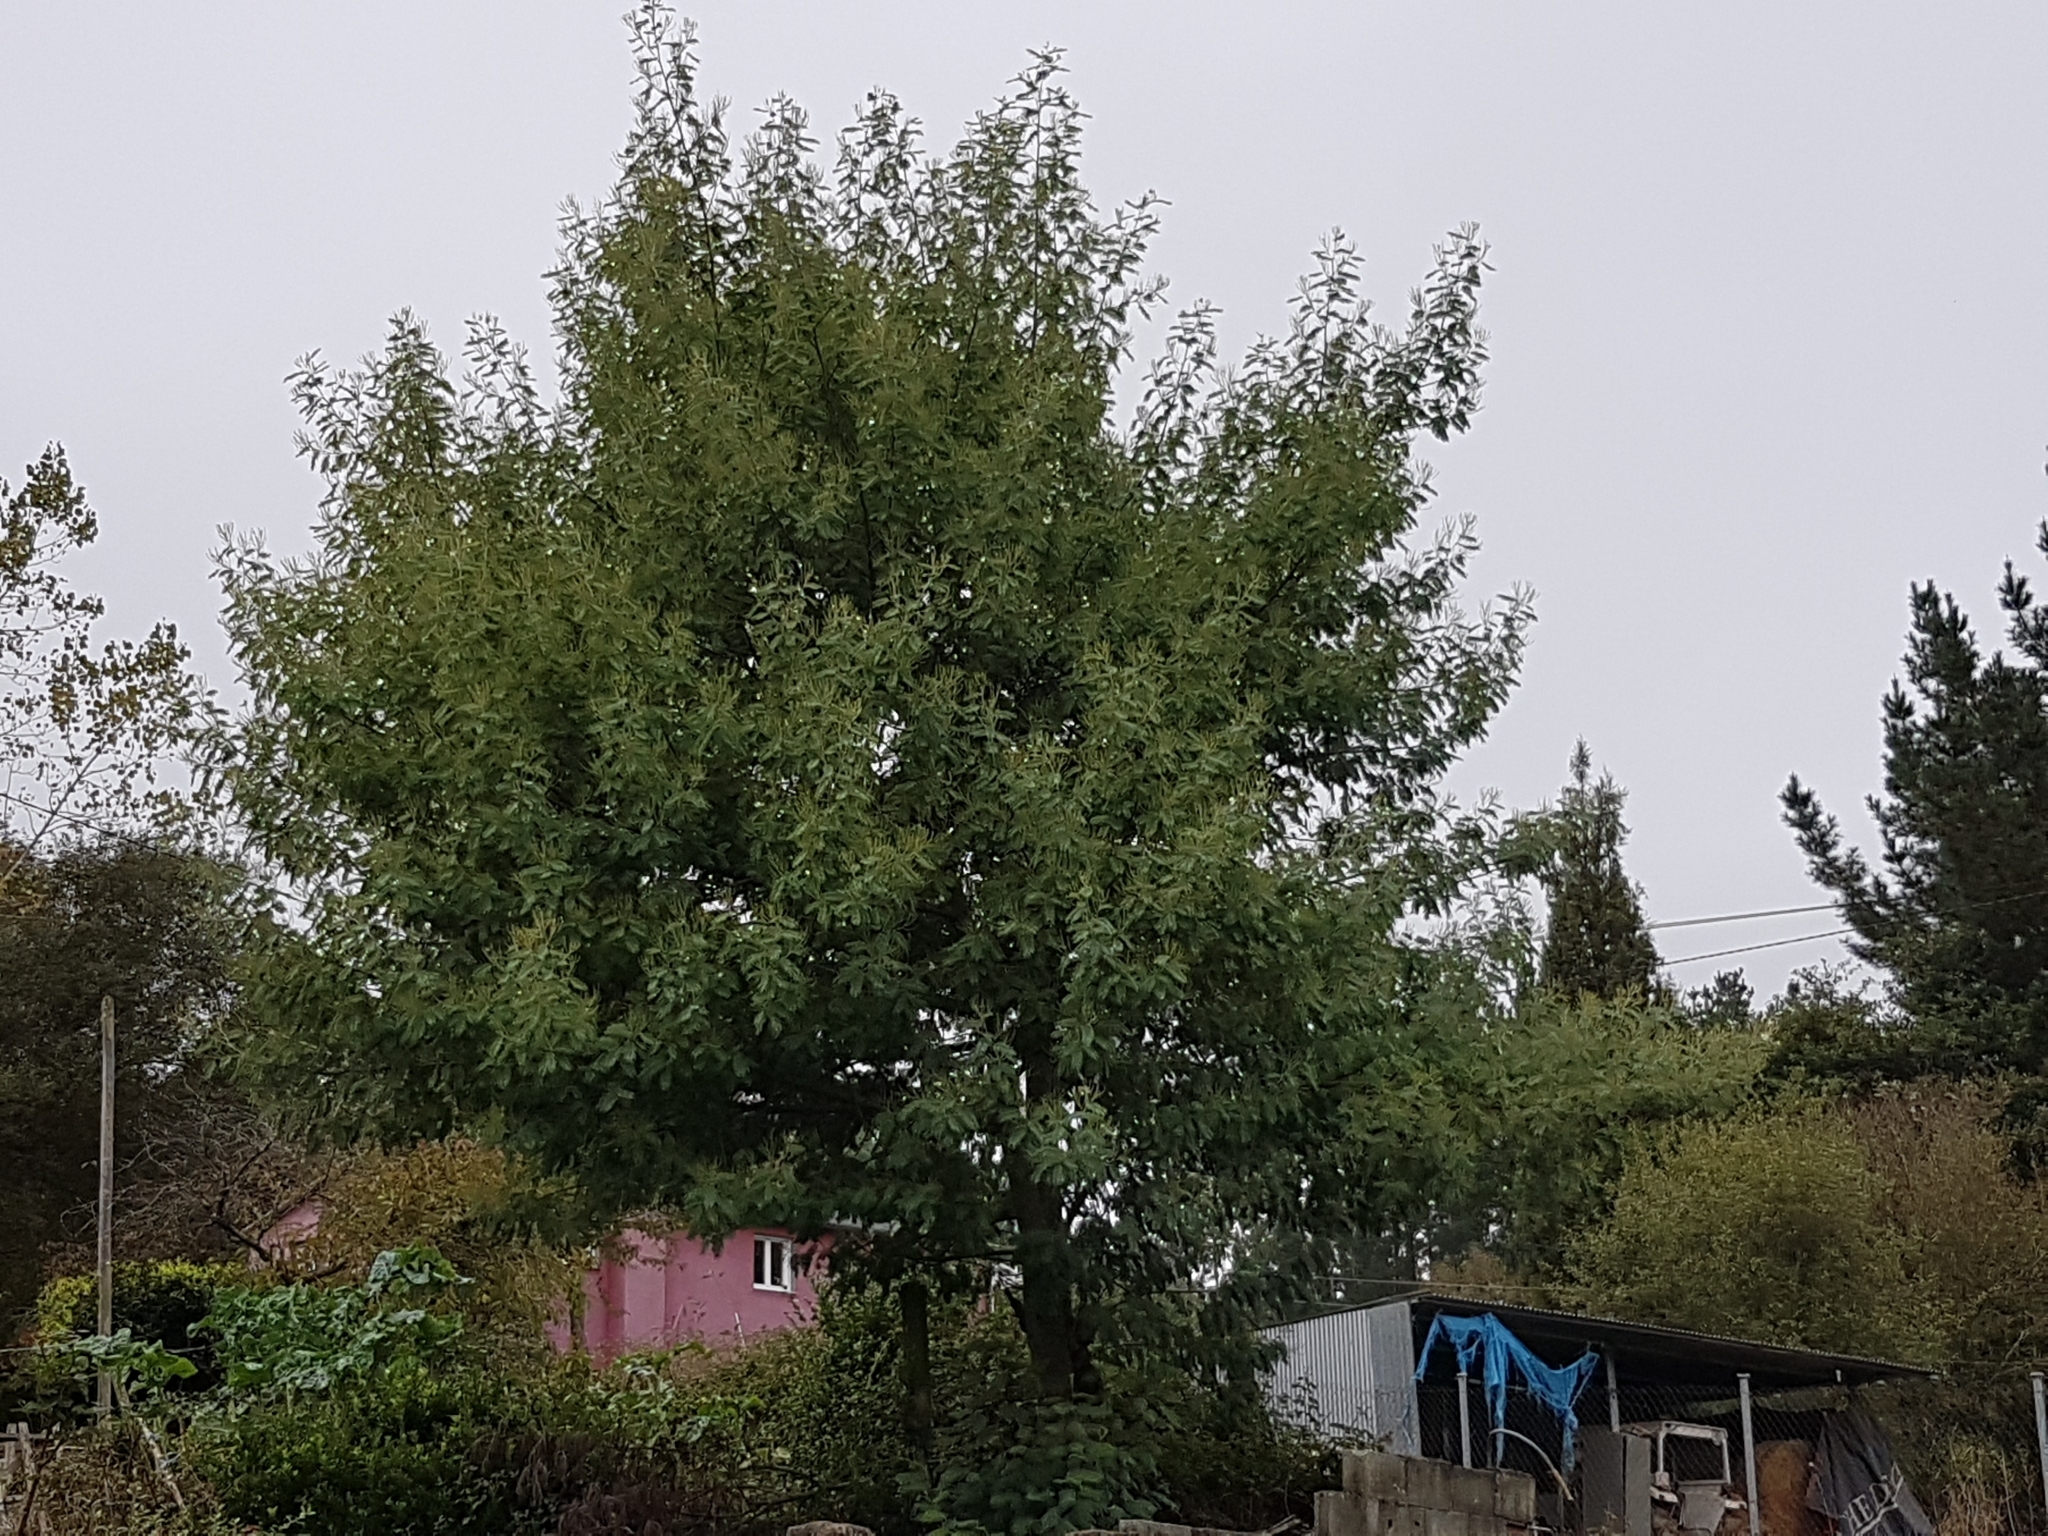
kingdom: Plantae
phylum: Tracheophyta
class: Magnoliopsida
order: Fabales
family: Fabaceae
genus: Acacia
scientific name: Acacia dealbata
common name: Silver wattle
